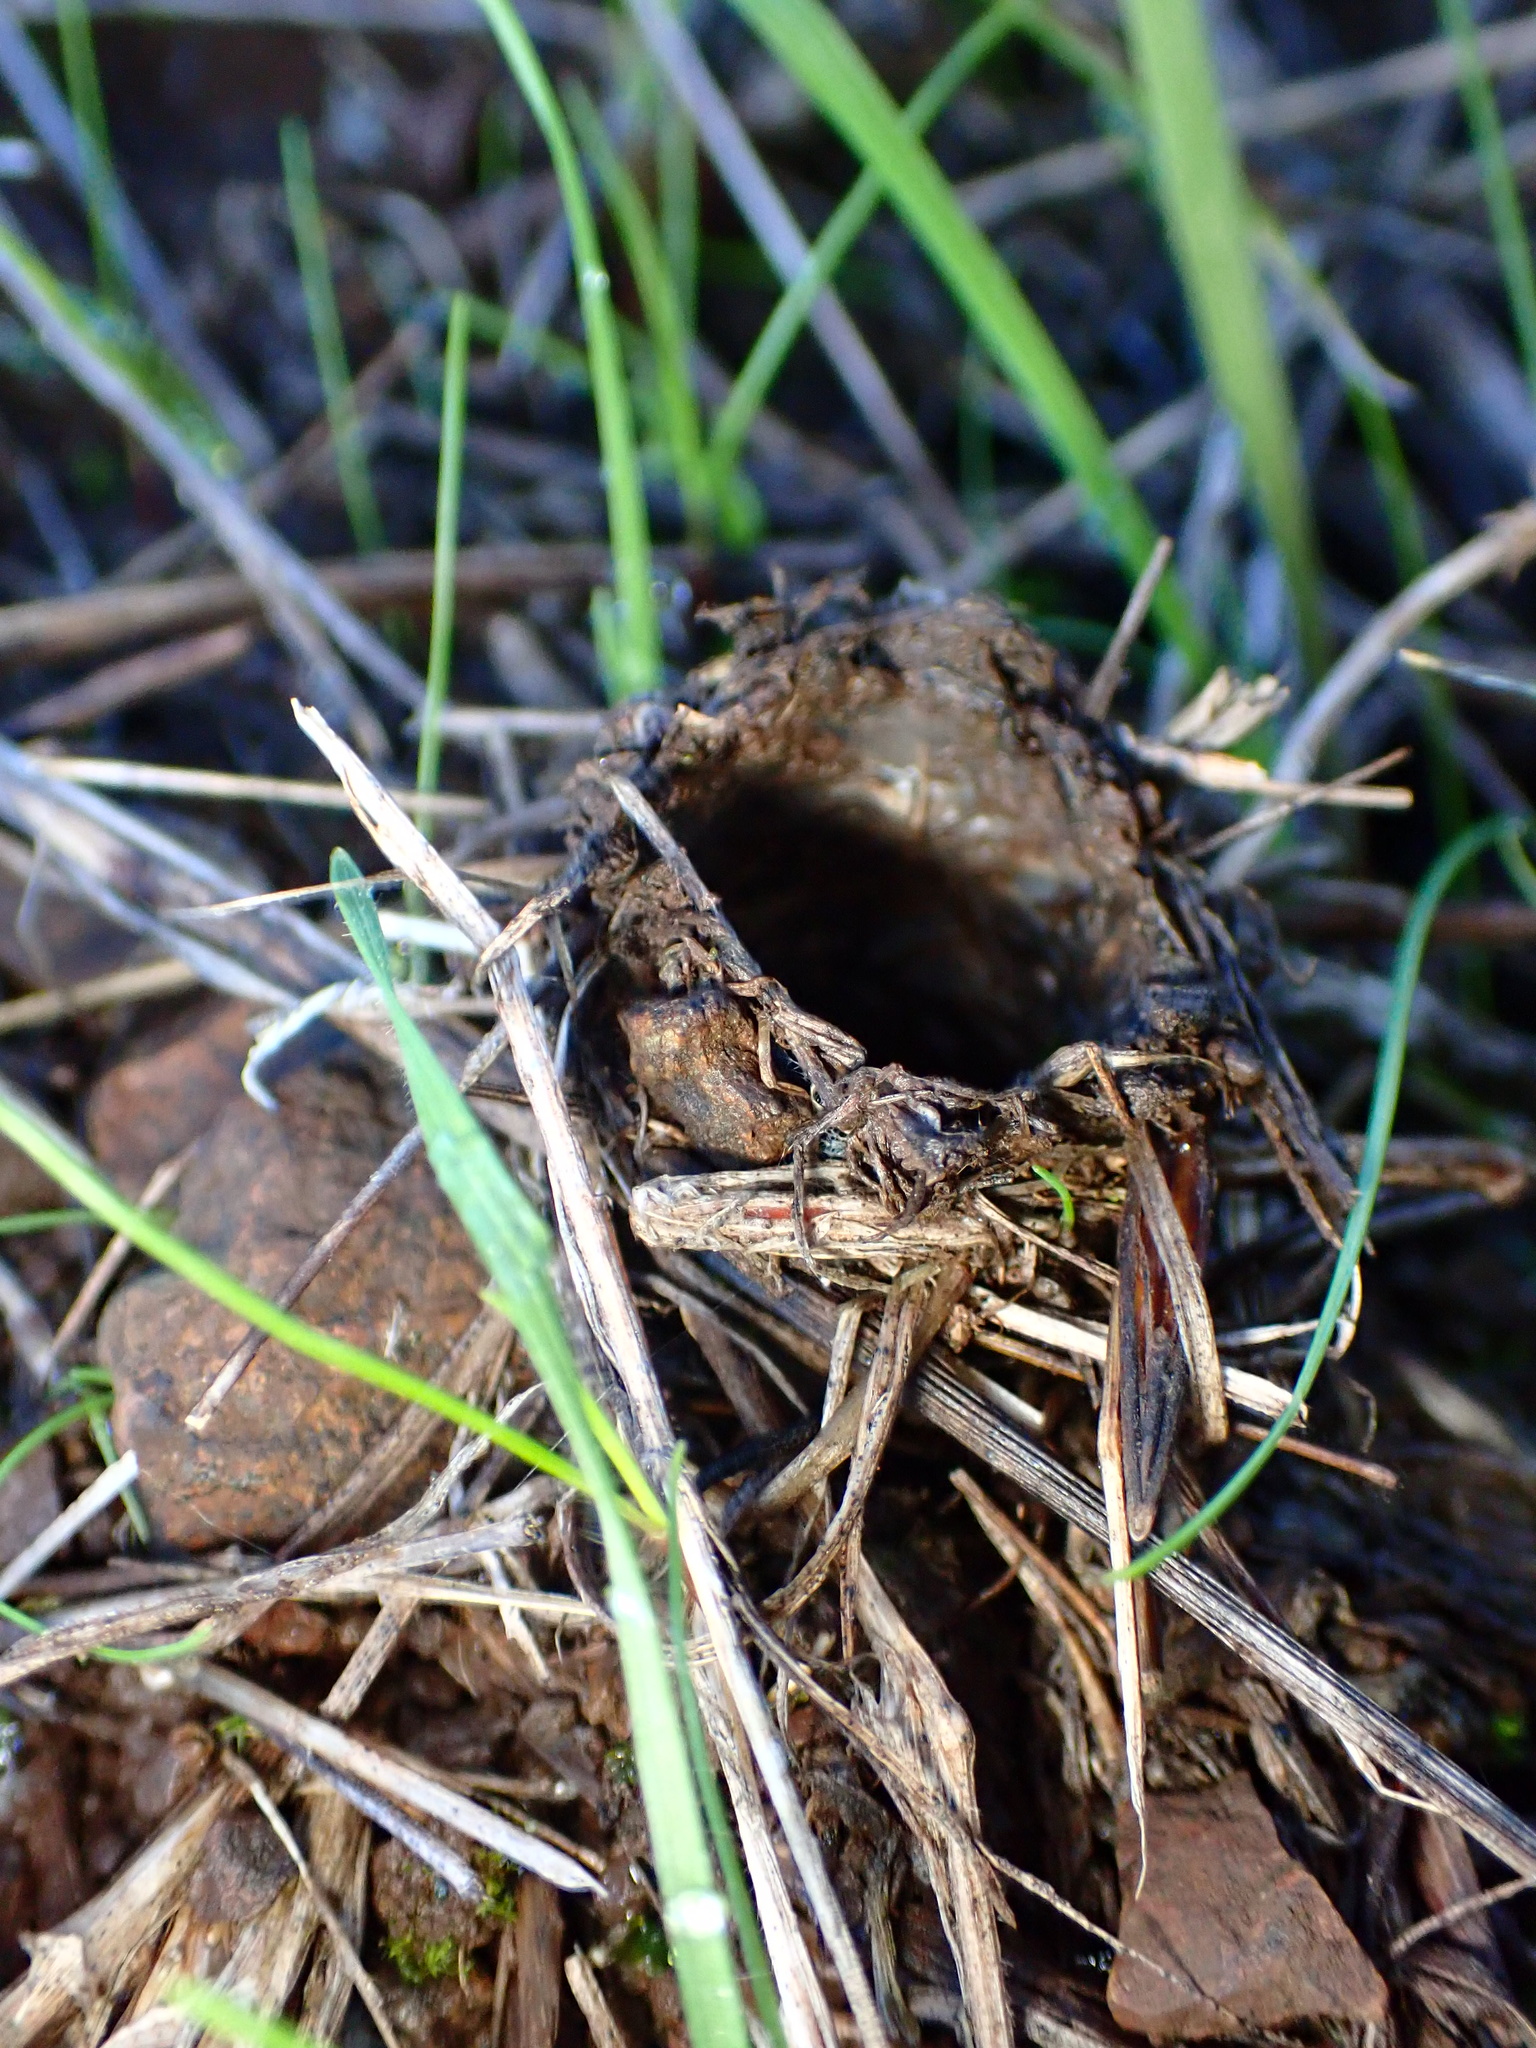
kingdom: Animalia
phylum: Arthropoda
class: Arachnida
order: Araneae
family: Antrodiaetidae
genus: Atypoides
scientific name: Atypoides riversi
